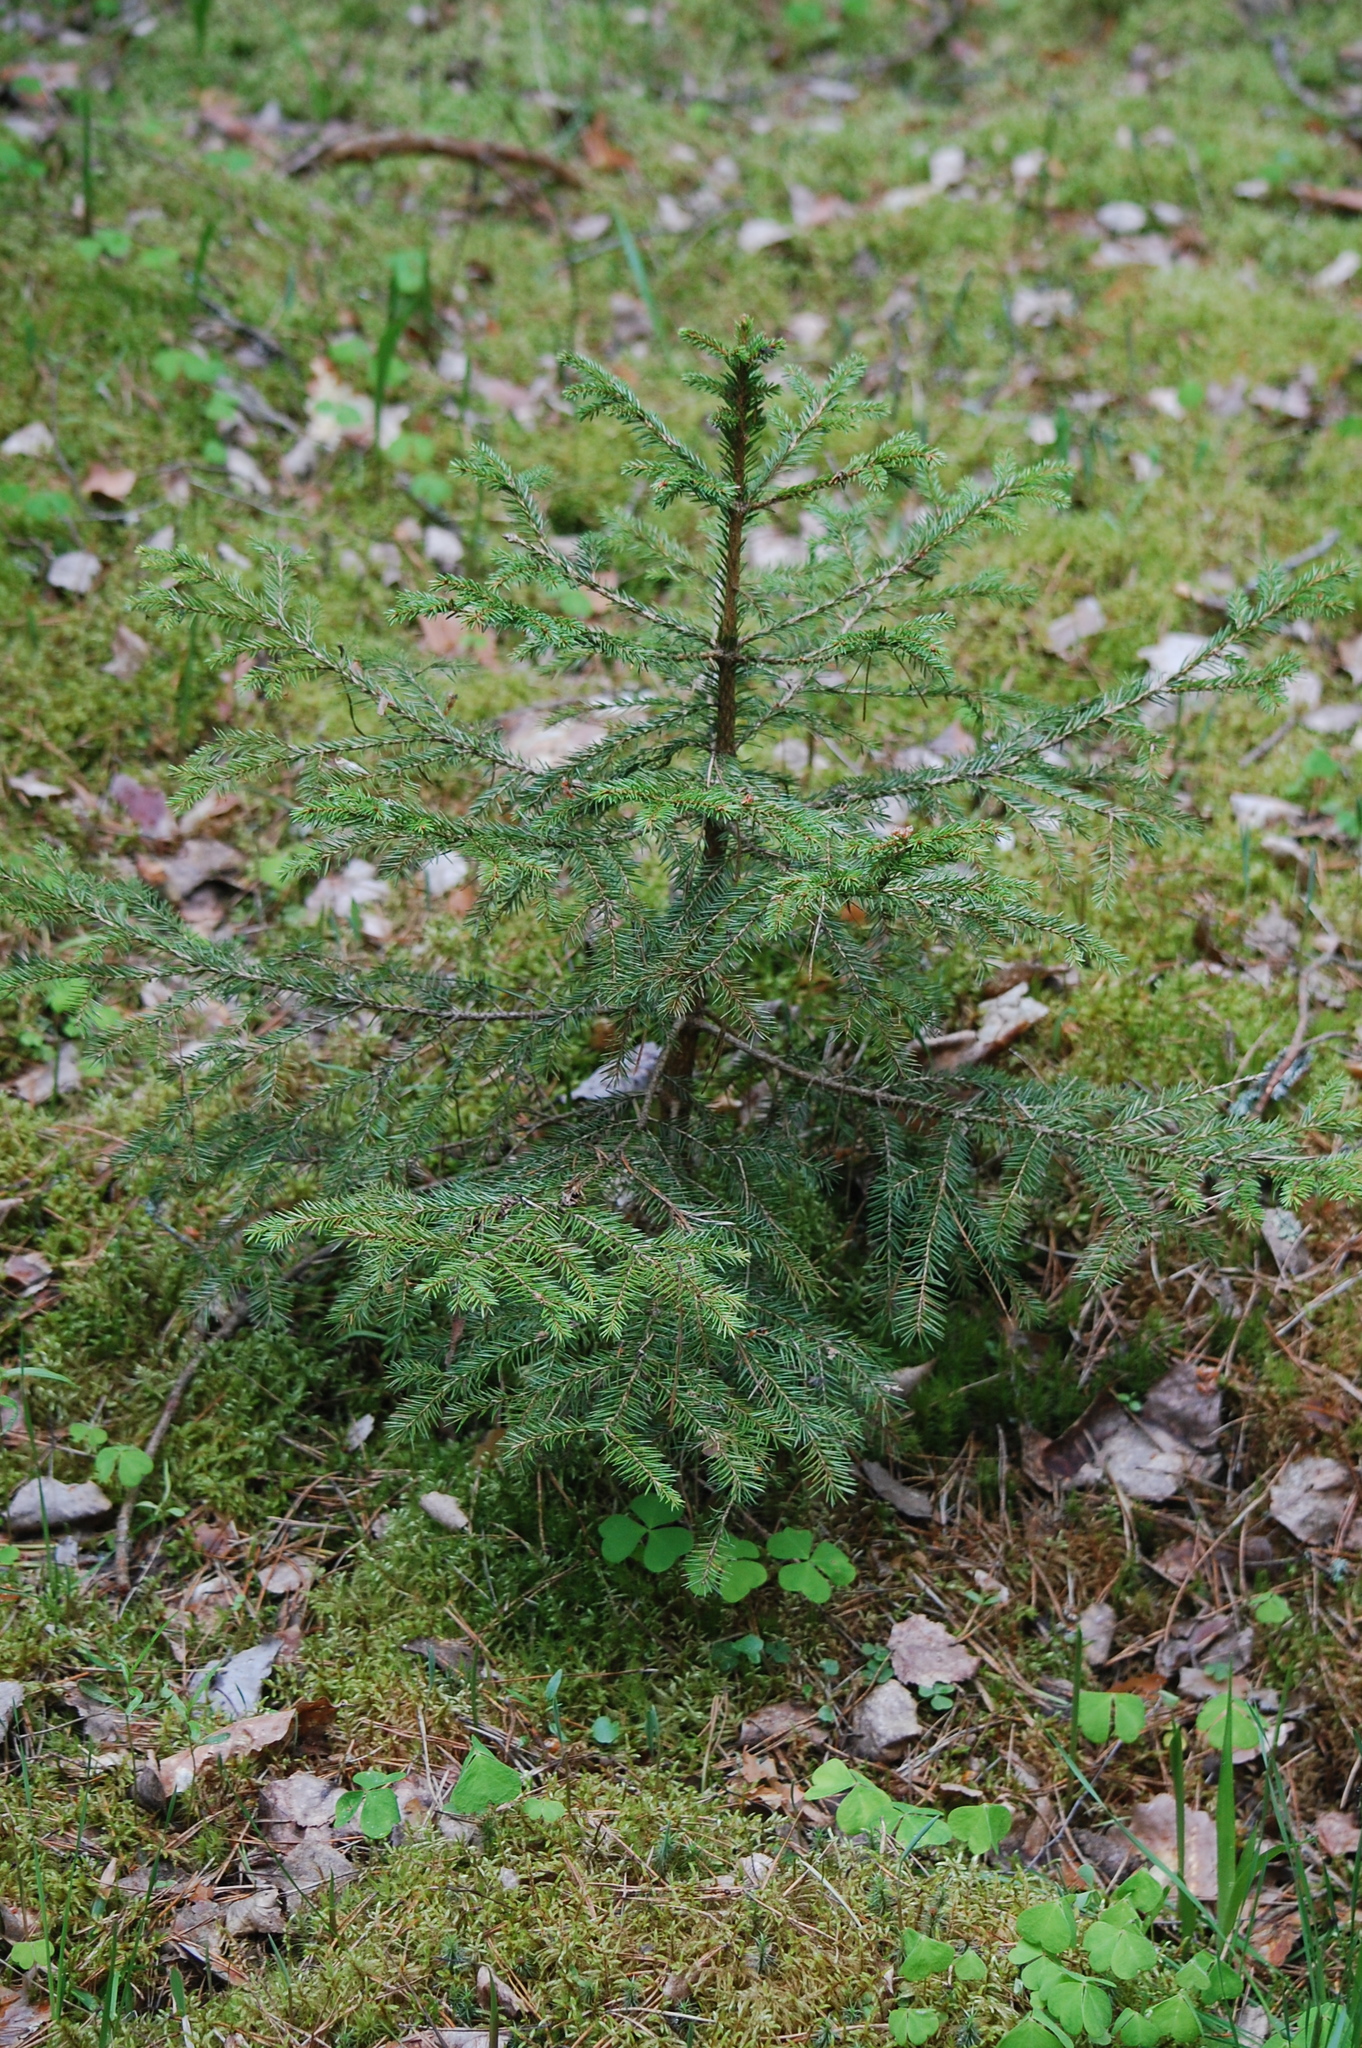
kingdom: Plantae
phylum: Tracheophyta
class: Pinopsida
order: Pinales
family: Pinaceae
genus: Picea
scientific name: Picea abies
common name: Norway spruce
